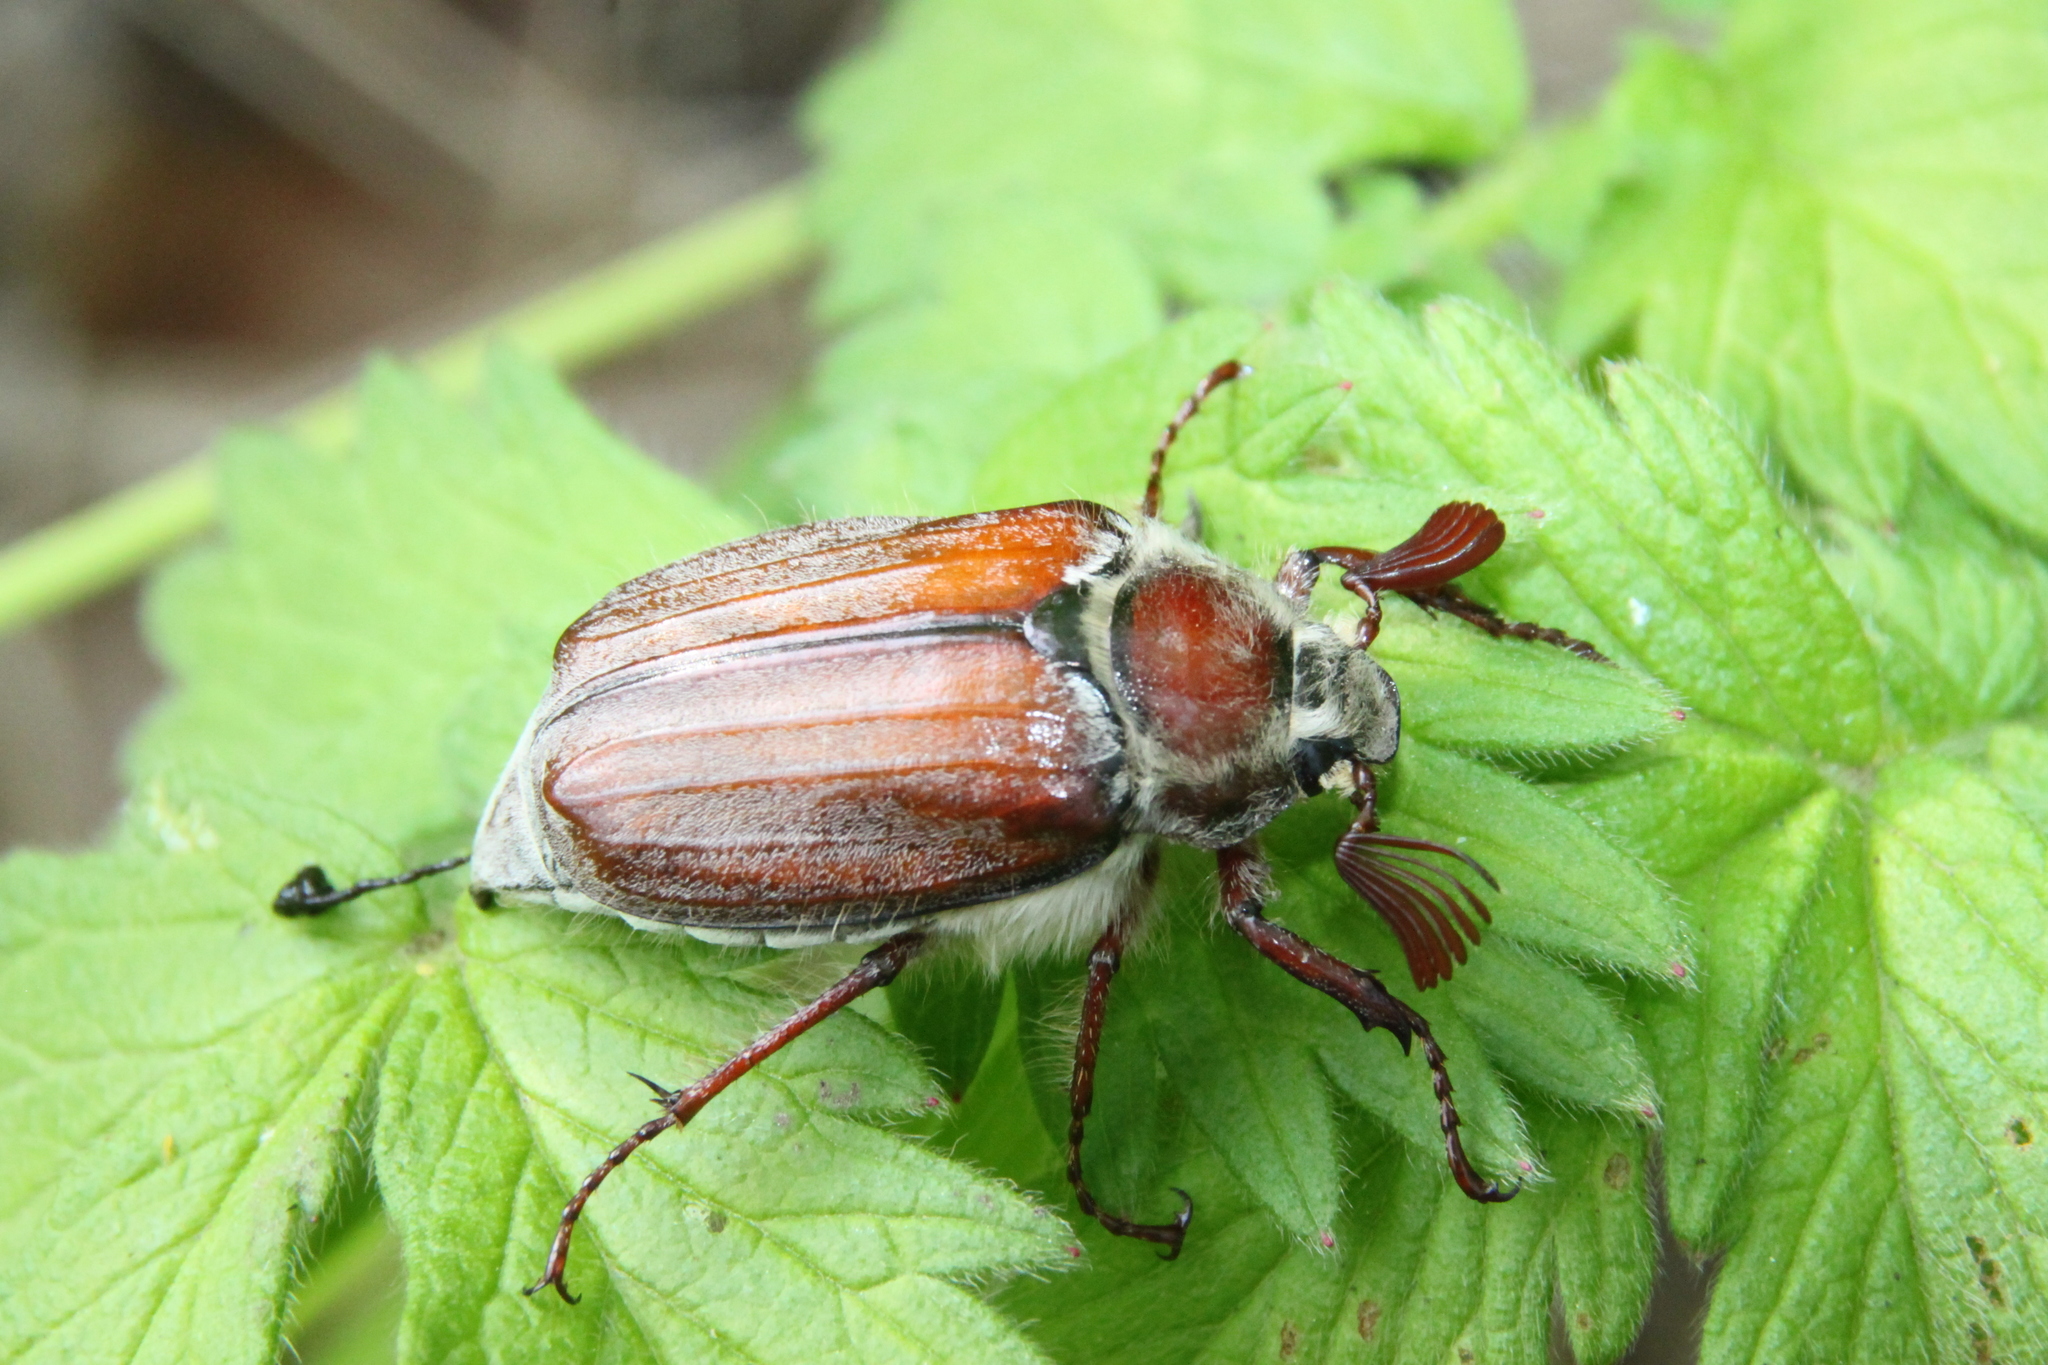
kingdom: Animalia
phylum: Arthropoda
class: Insecta
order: Coleoptera
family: Scarabaeidae
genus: Melolontha
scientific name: Melolontha hippocastani
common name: Chestnut cockchafer
